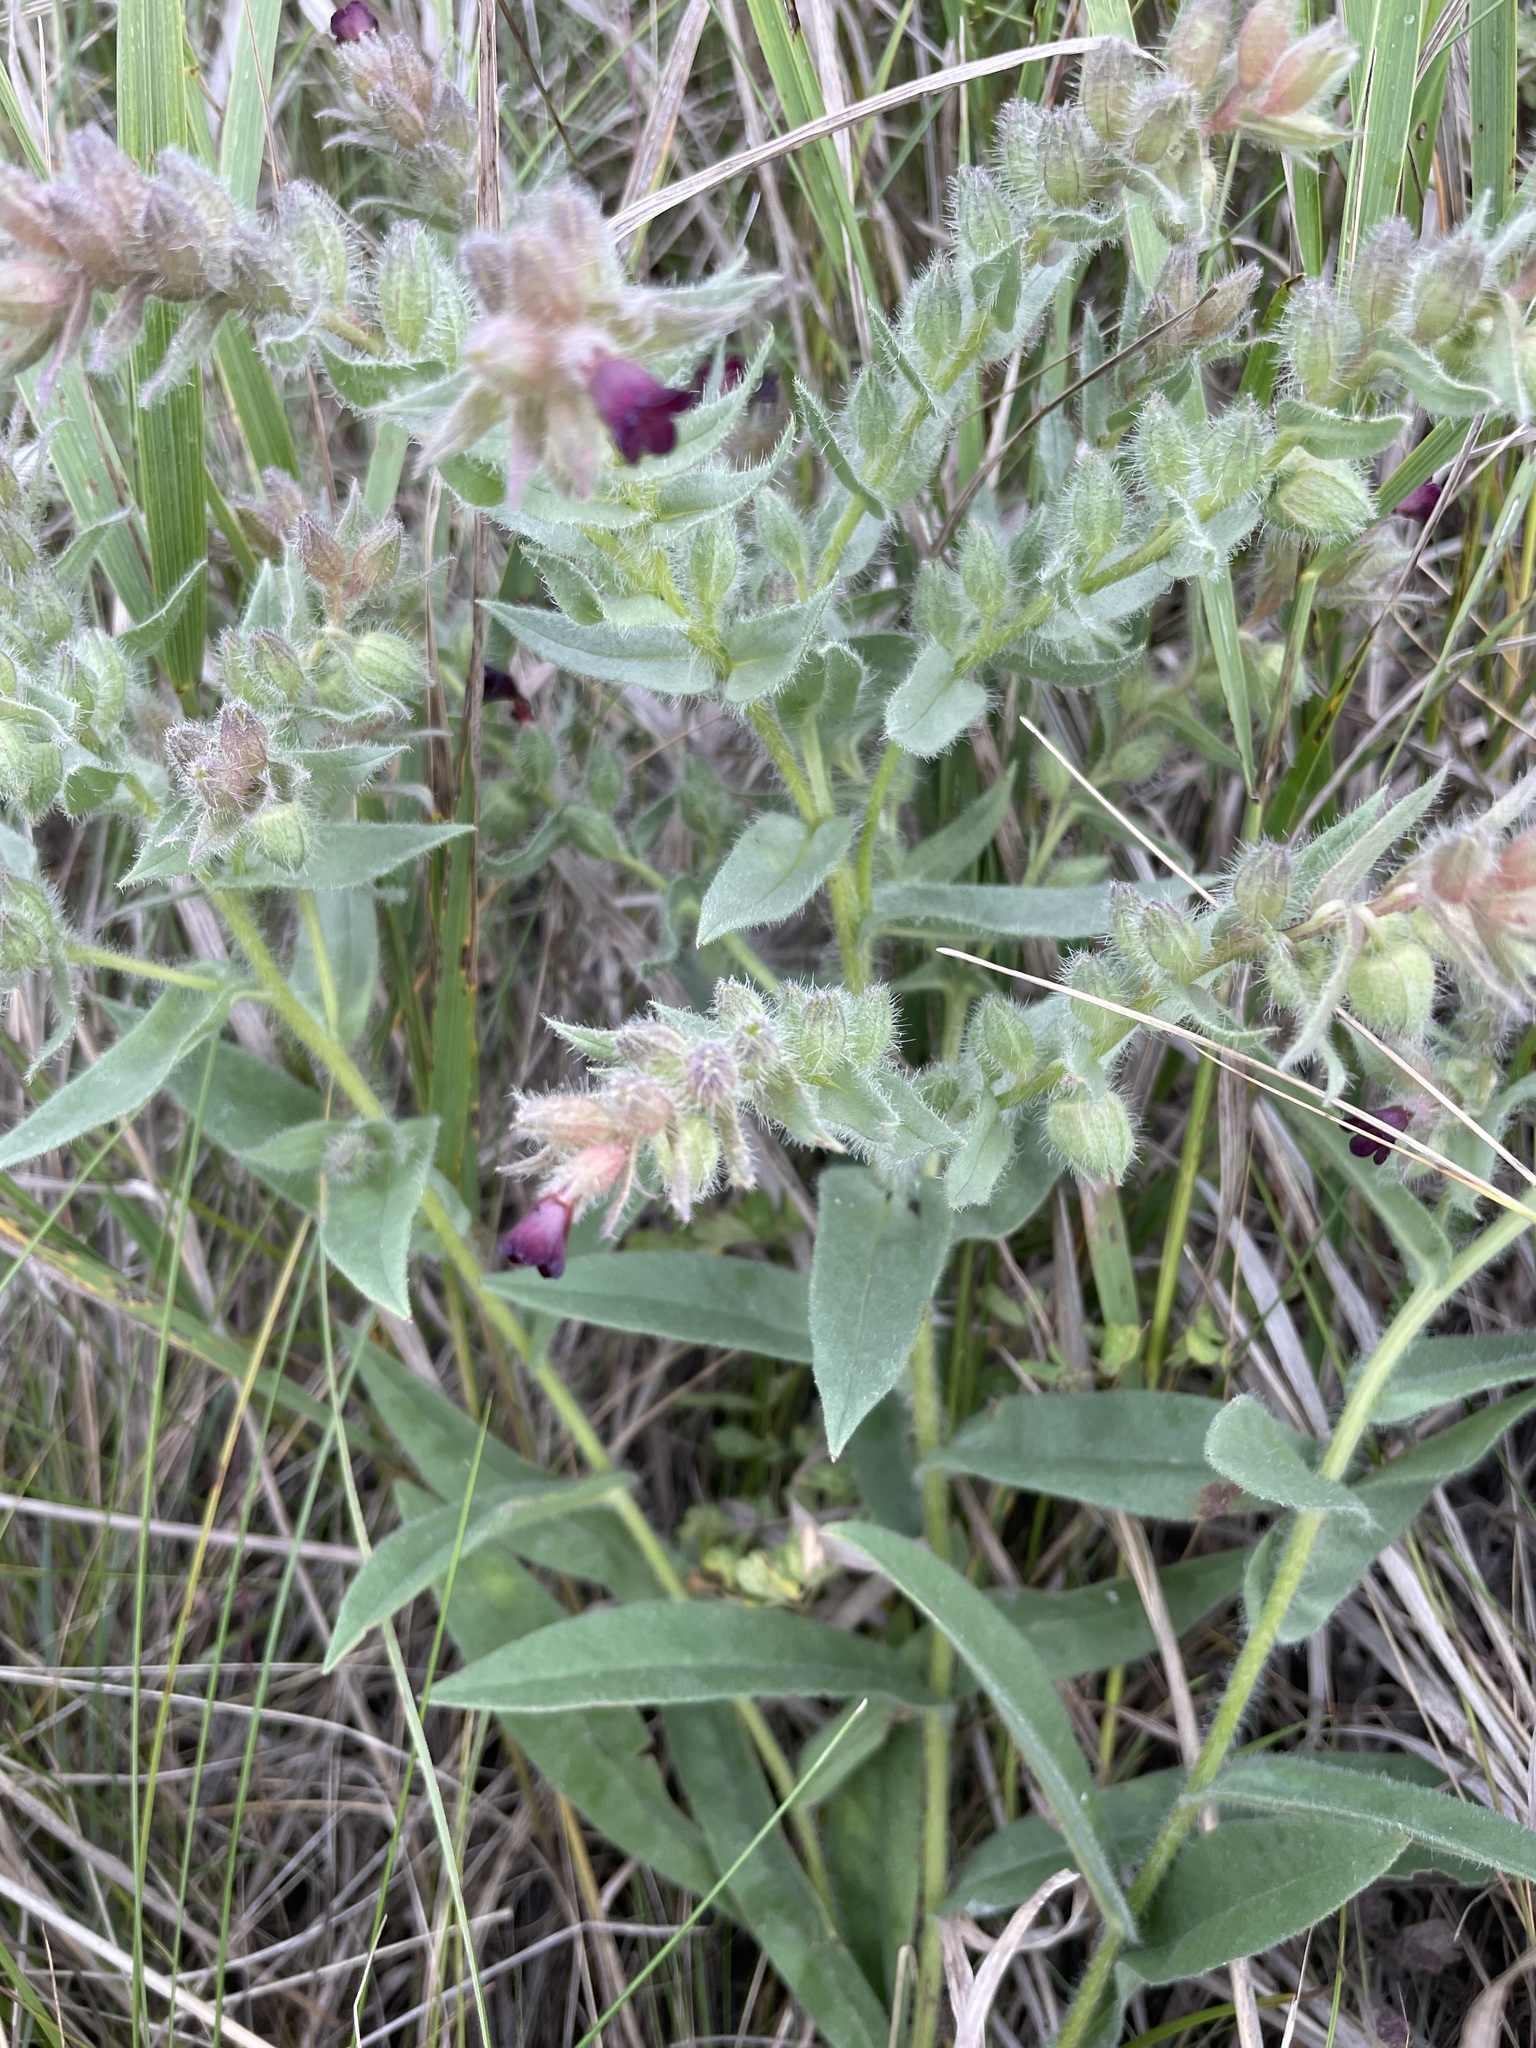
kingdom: Plantae
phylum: Tracheophyta
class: Magnoliopsida
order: Boraginales
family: Boraginaceae
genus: Nonea
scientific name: Nonea pulla
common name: Brown nonea
